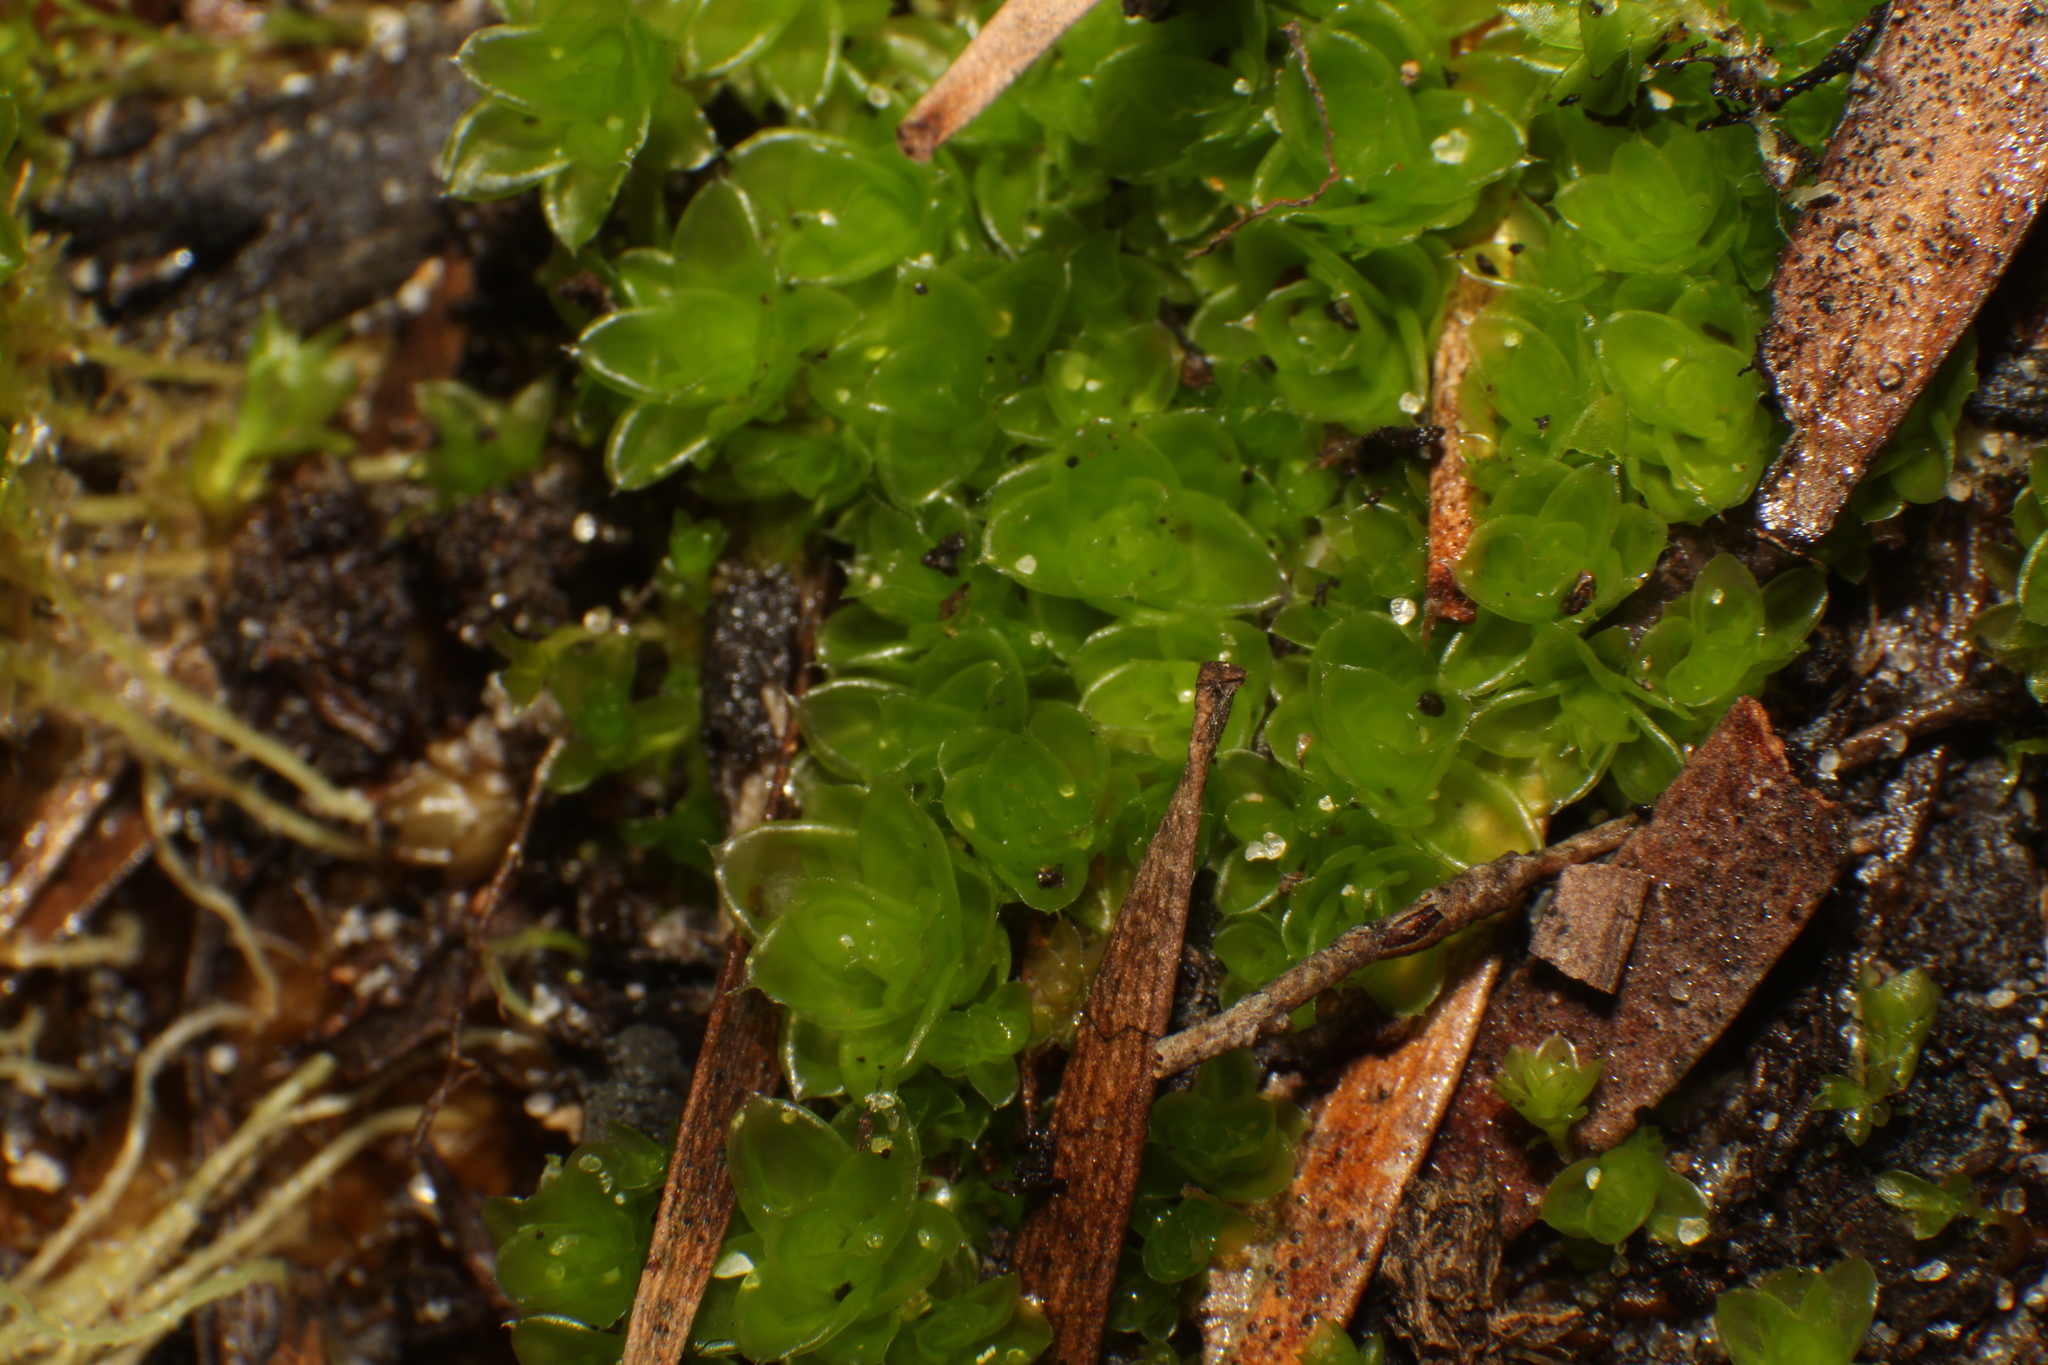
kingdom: Plantae
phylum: Bryophyta
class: Bryopsida
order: Pottiales
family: Pleurophascaceae
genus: Pleurophascum
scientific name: Pleurophascum occidentale
